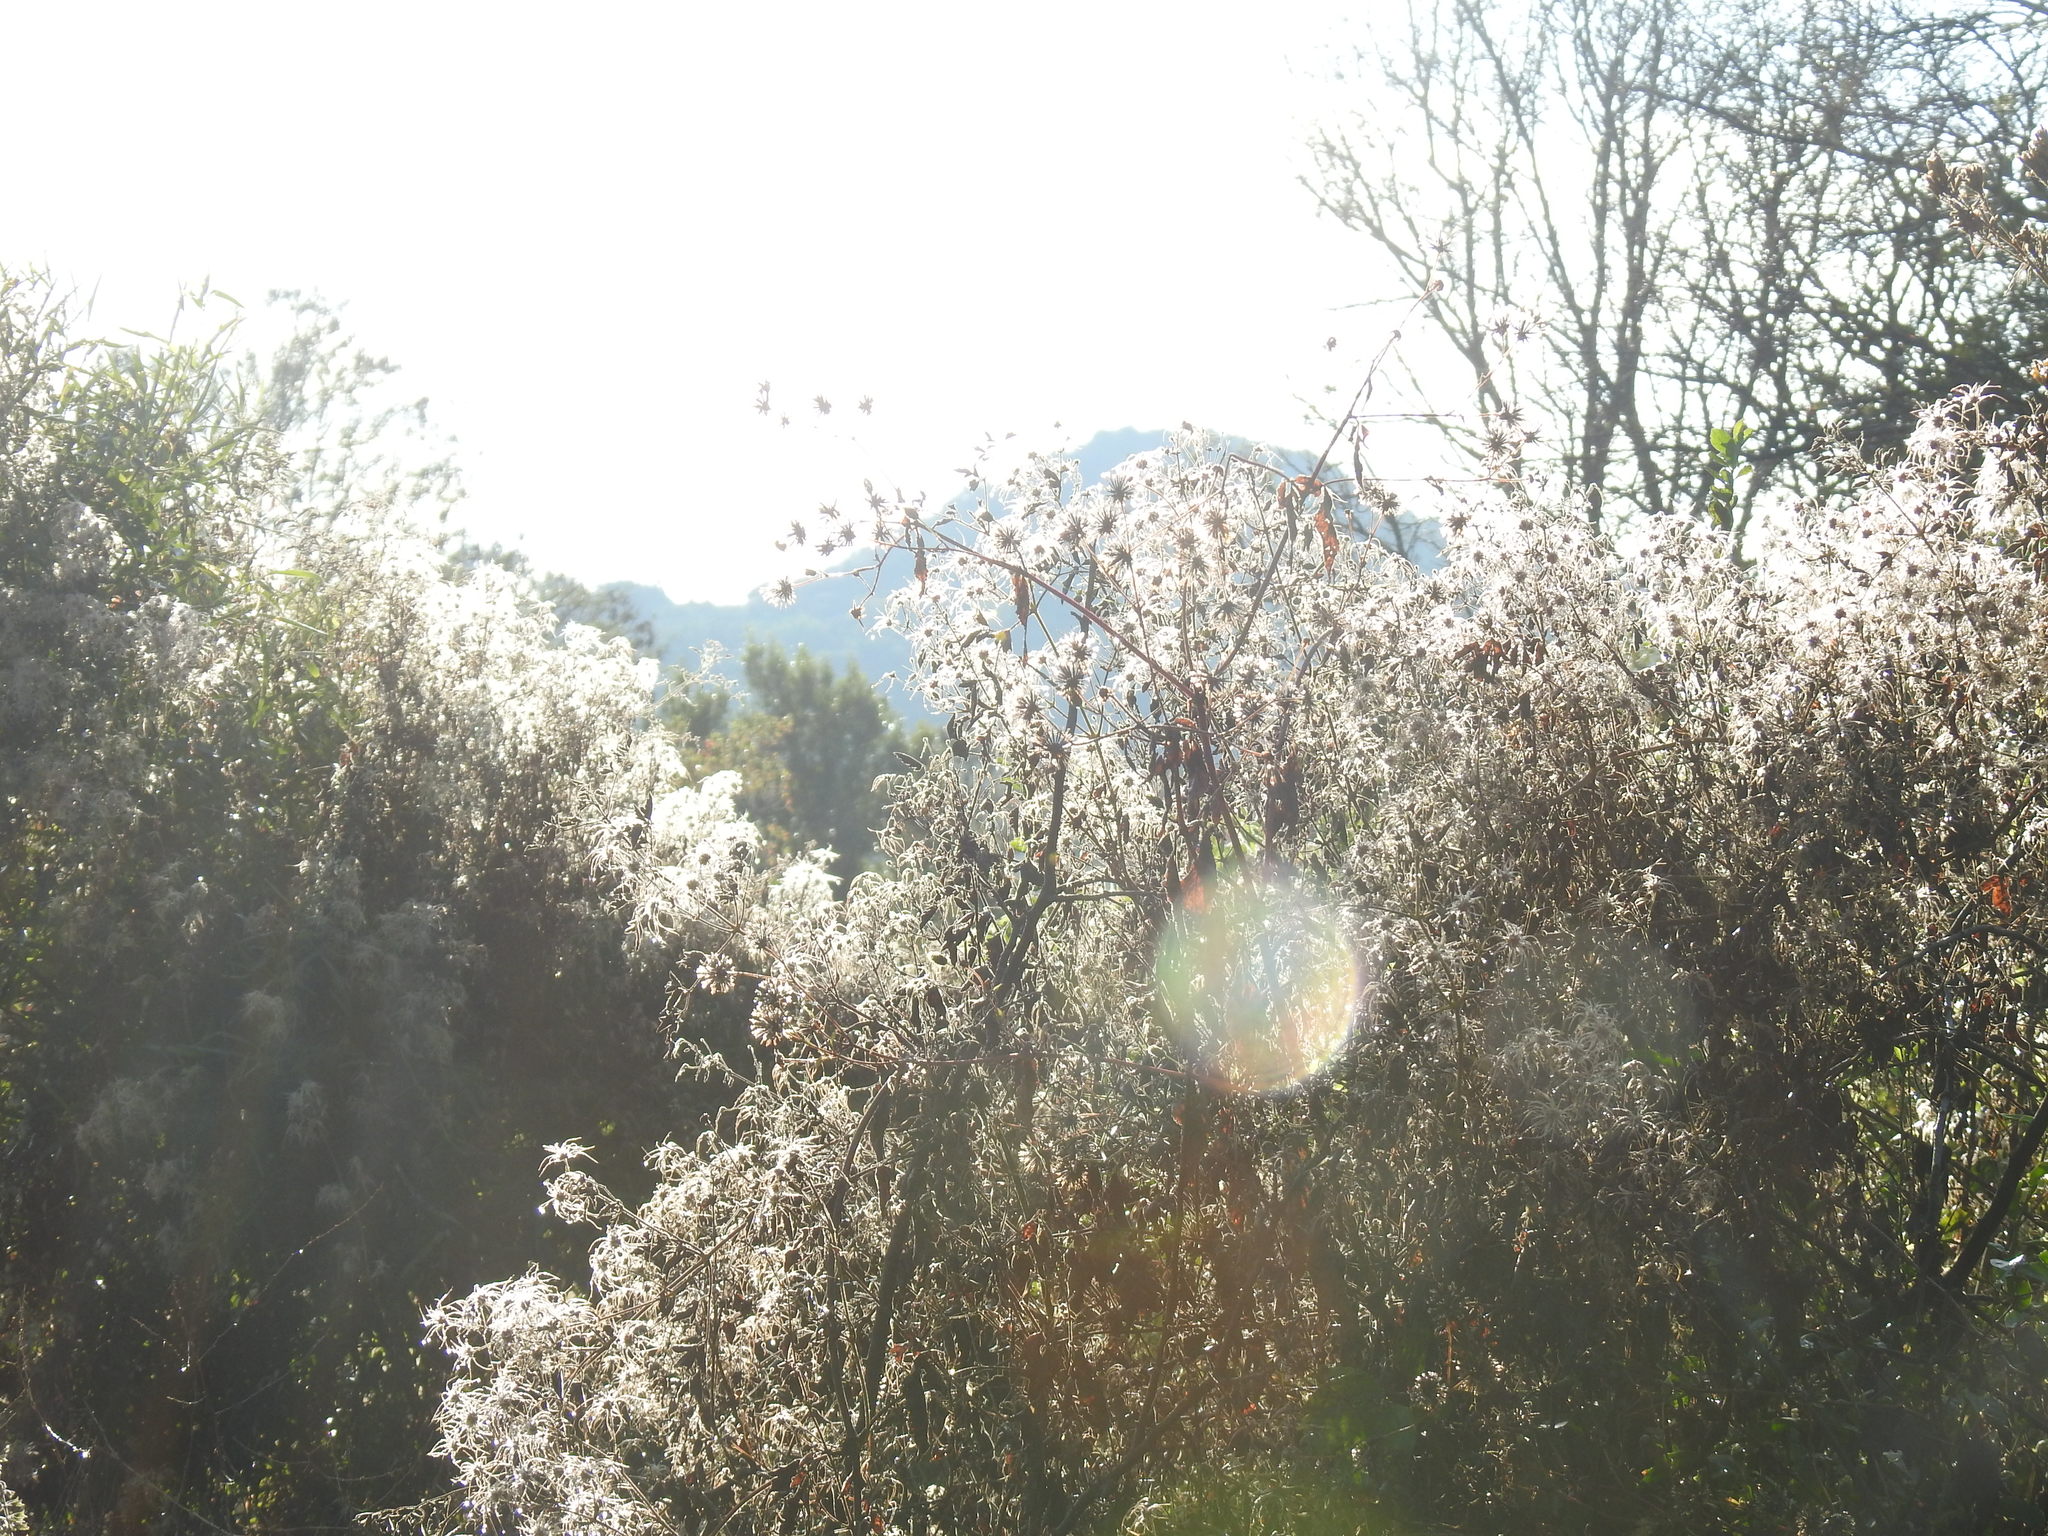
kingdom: Plantae
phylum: Tracheophyta
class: Magnoliopsida
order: Ranunculales
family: Ranunculaceae
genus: Clematis
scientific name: Clematis brachiata
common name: Traveler's-joy
